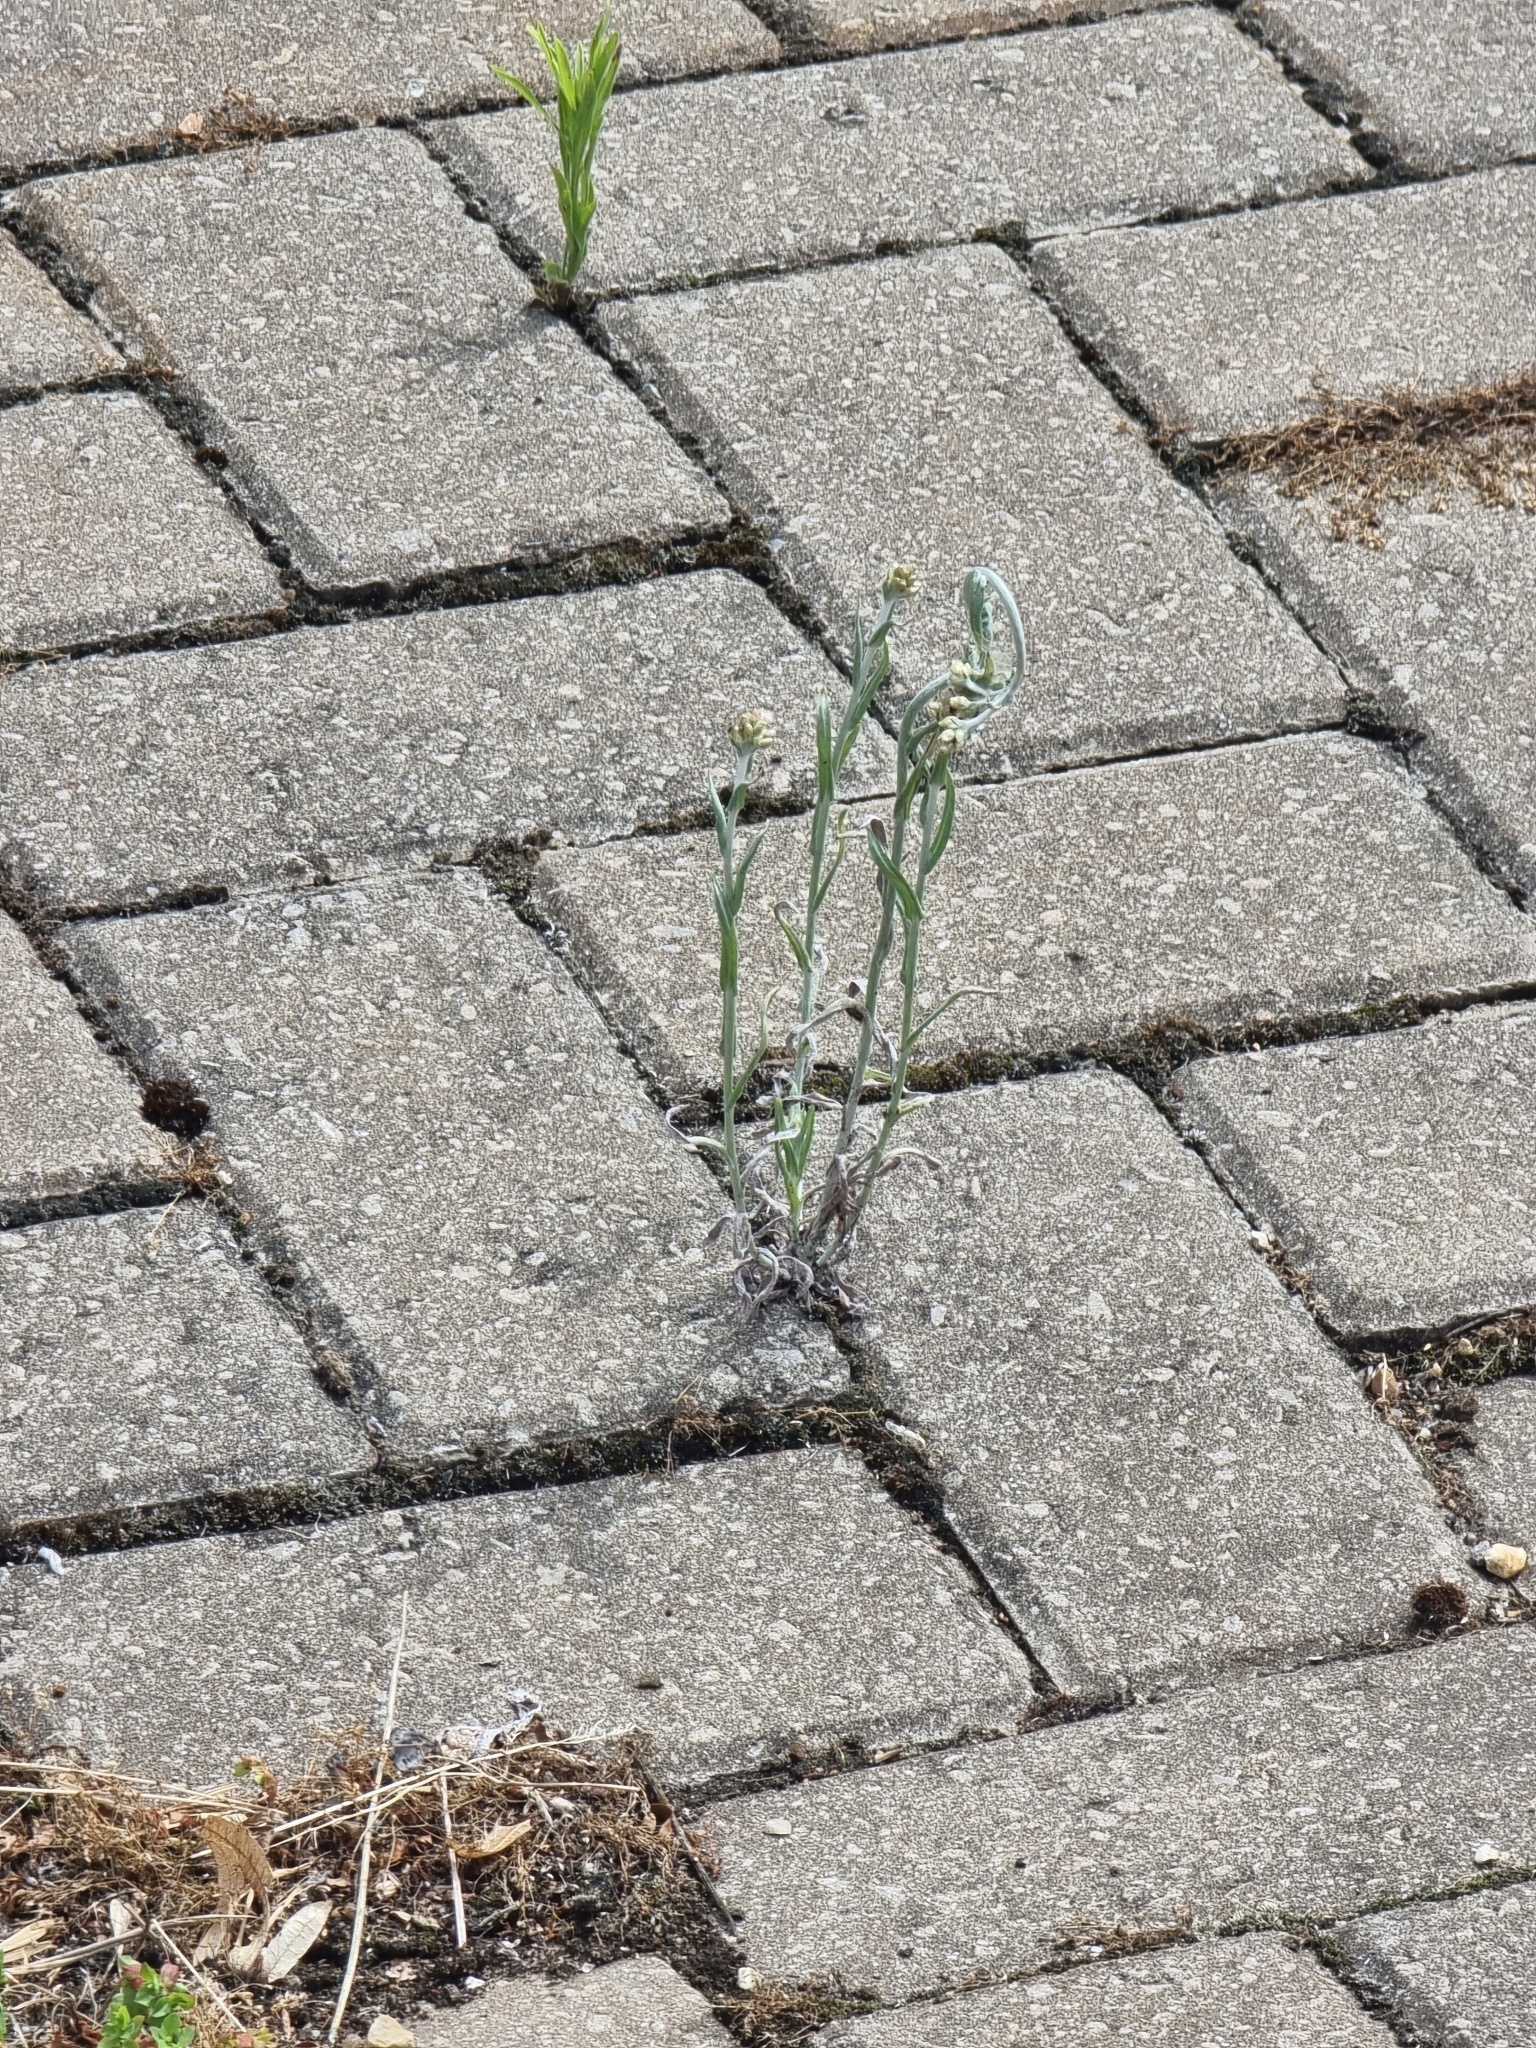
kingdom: Plantae
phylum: Tracheophyta
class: Magnoliopsida
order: Asterales
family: Asteraceae
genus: Helichrysum
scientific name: Helichrysum luteoalbum
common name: Daisy
